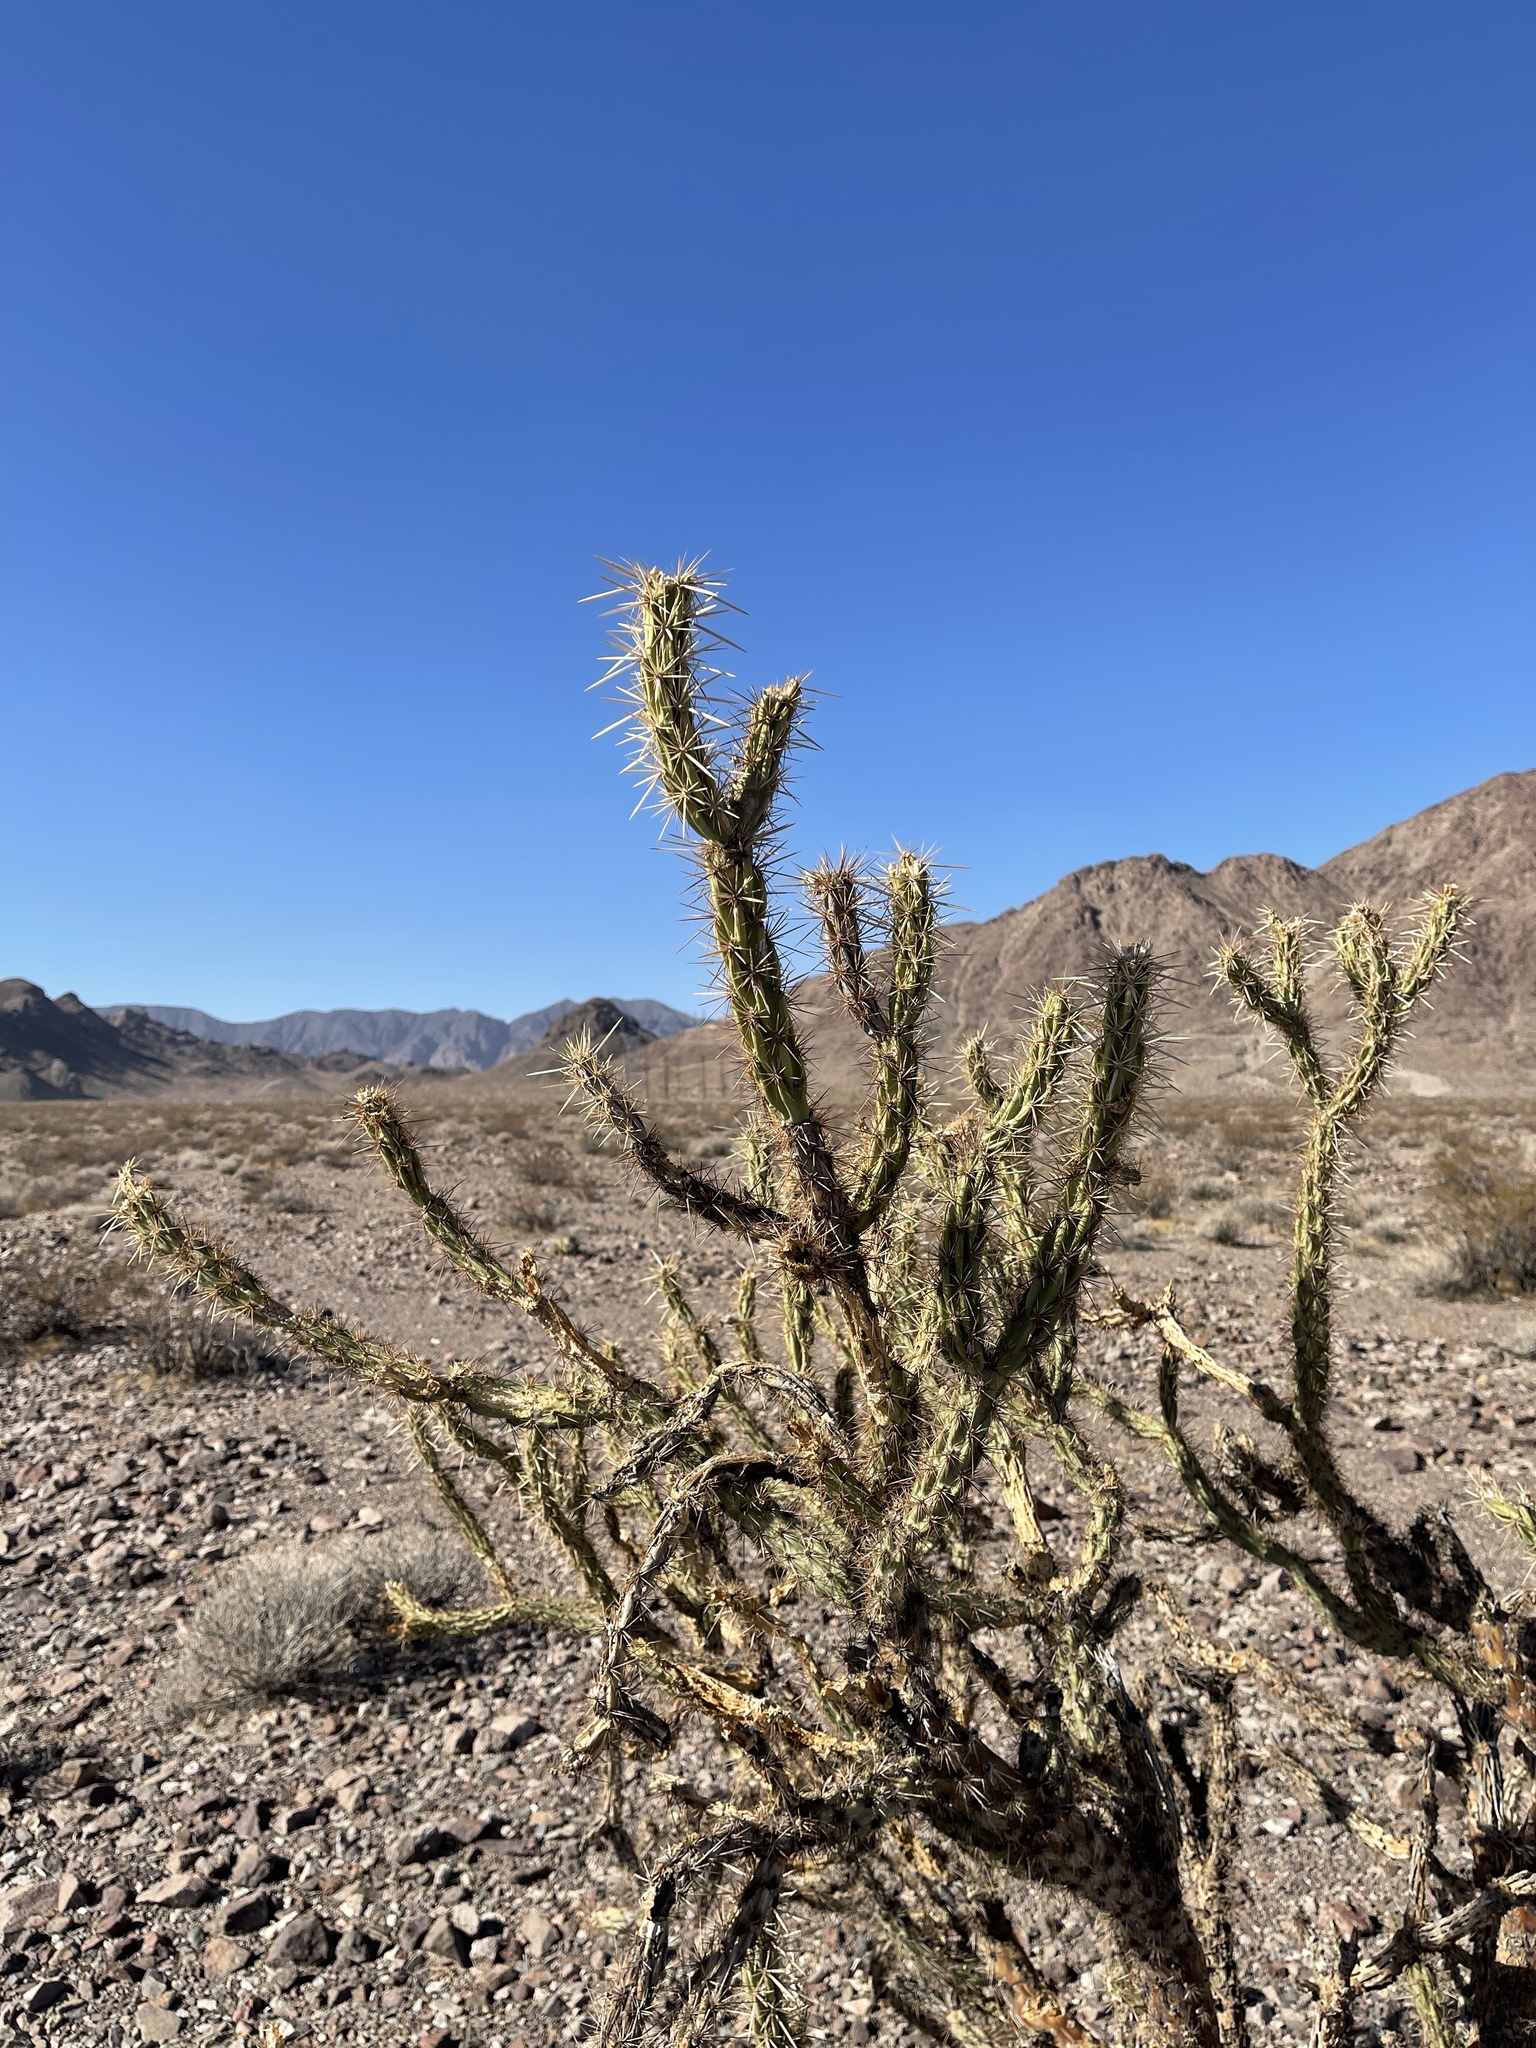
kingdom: Plantae
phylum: Tracheophyta
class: Magnoliopsida
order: Caryophyllales
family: Cactaceae
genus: Cylindropuntia
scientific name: Cylindropuntia acanthocarpa
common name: Buckhorn cholla
